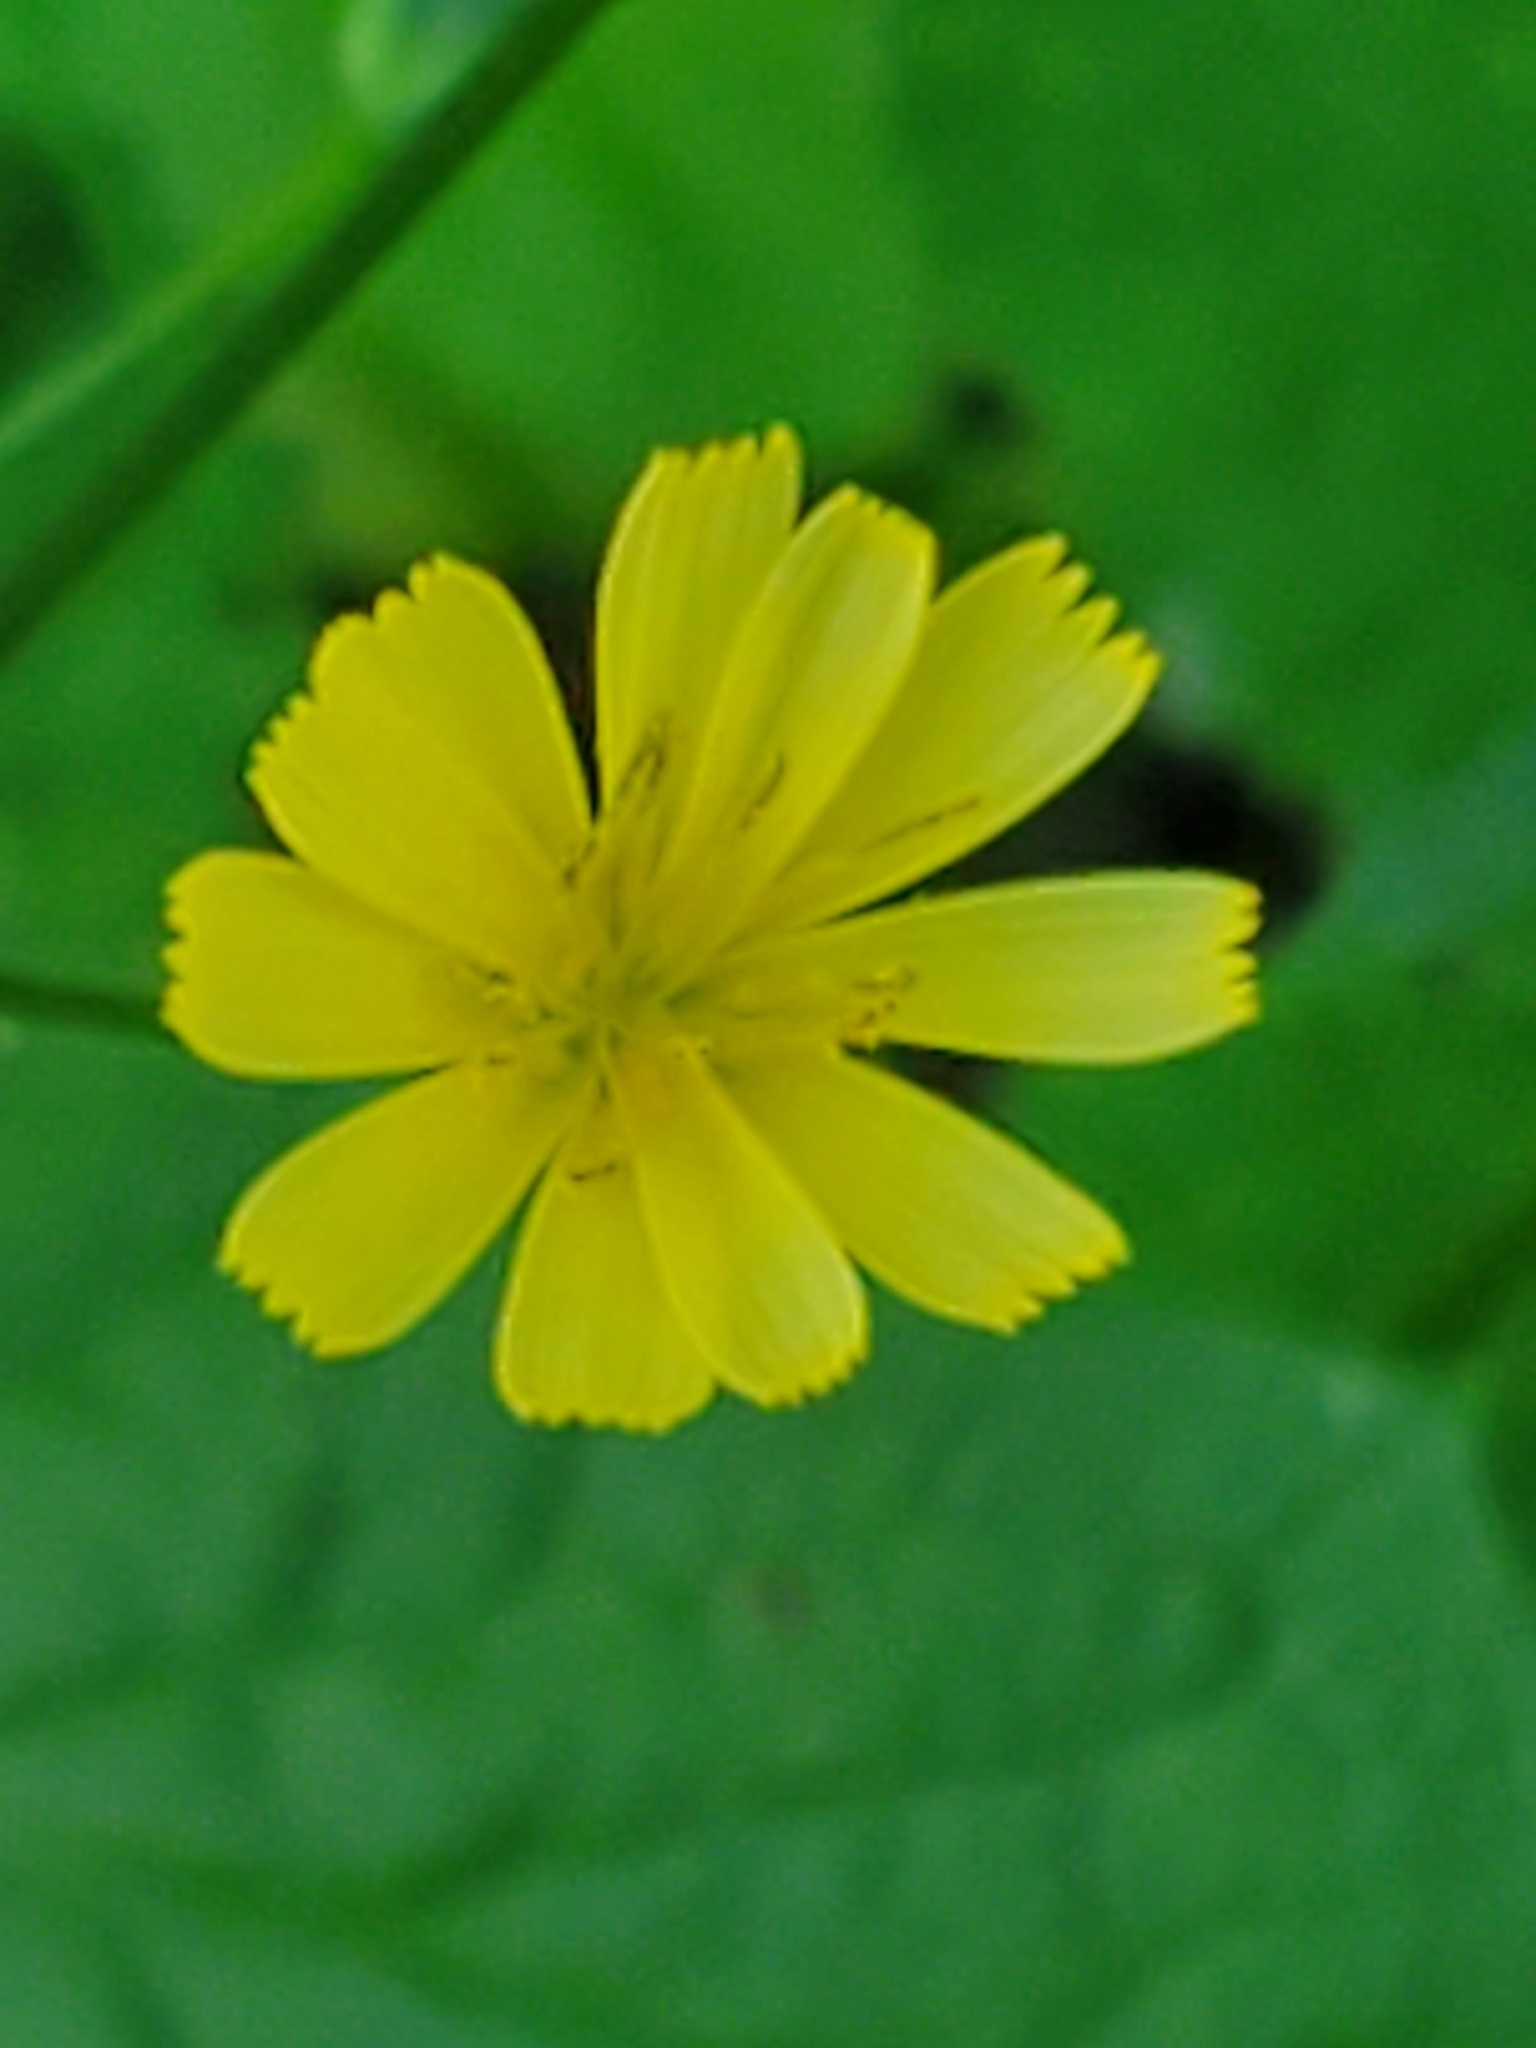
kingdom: Plantae
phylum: Tracheophyta
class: Magnoliopsida
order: Asterales
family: Asteraceae
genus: Lapsana
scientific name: Lapsana communis
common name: Nipplewort
